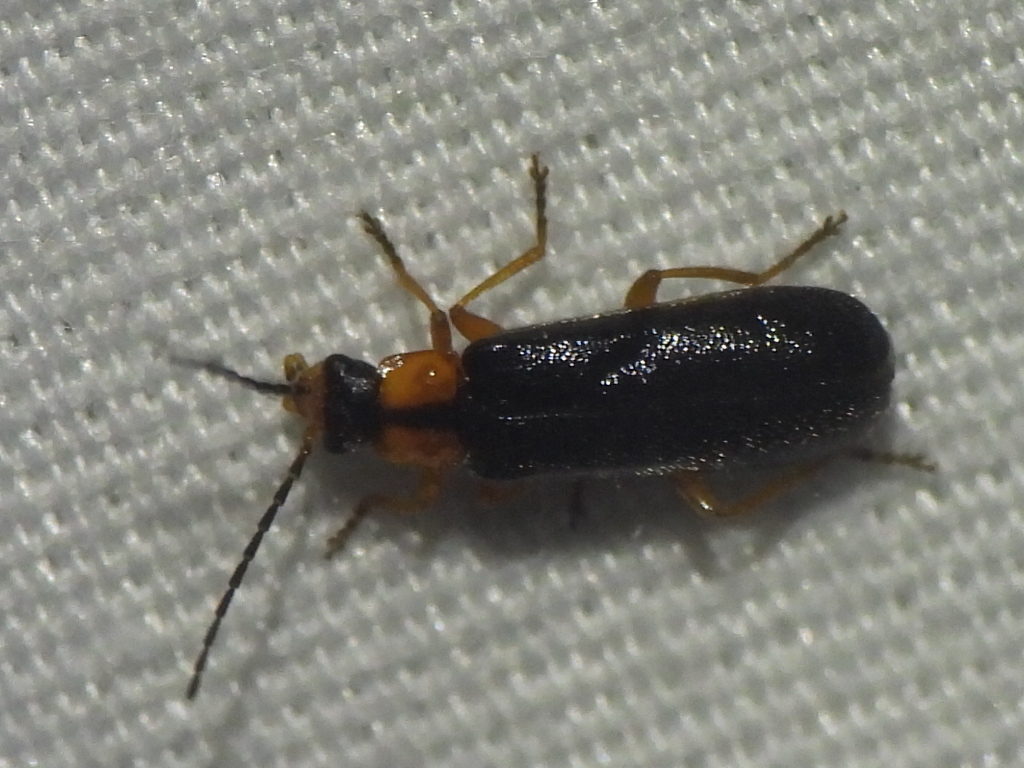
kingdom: Animalia
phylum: Arthropoda
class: Insecta
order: Coleoptera
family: Cantharidae
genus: Rhagonycha
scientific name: Rhagonycha lineola
